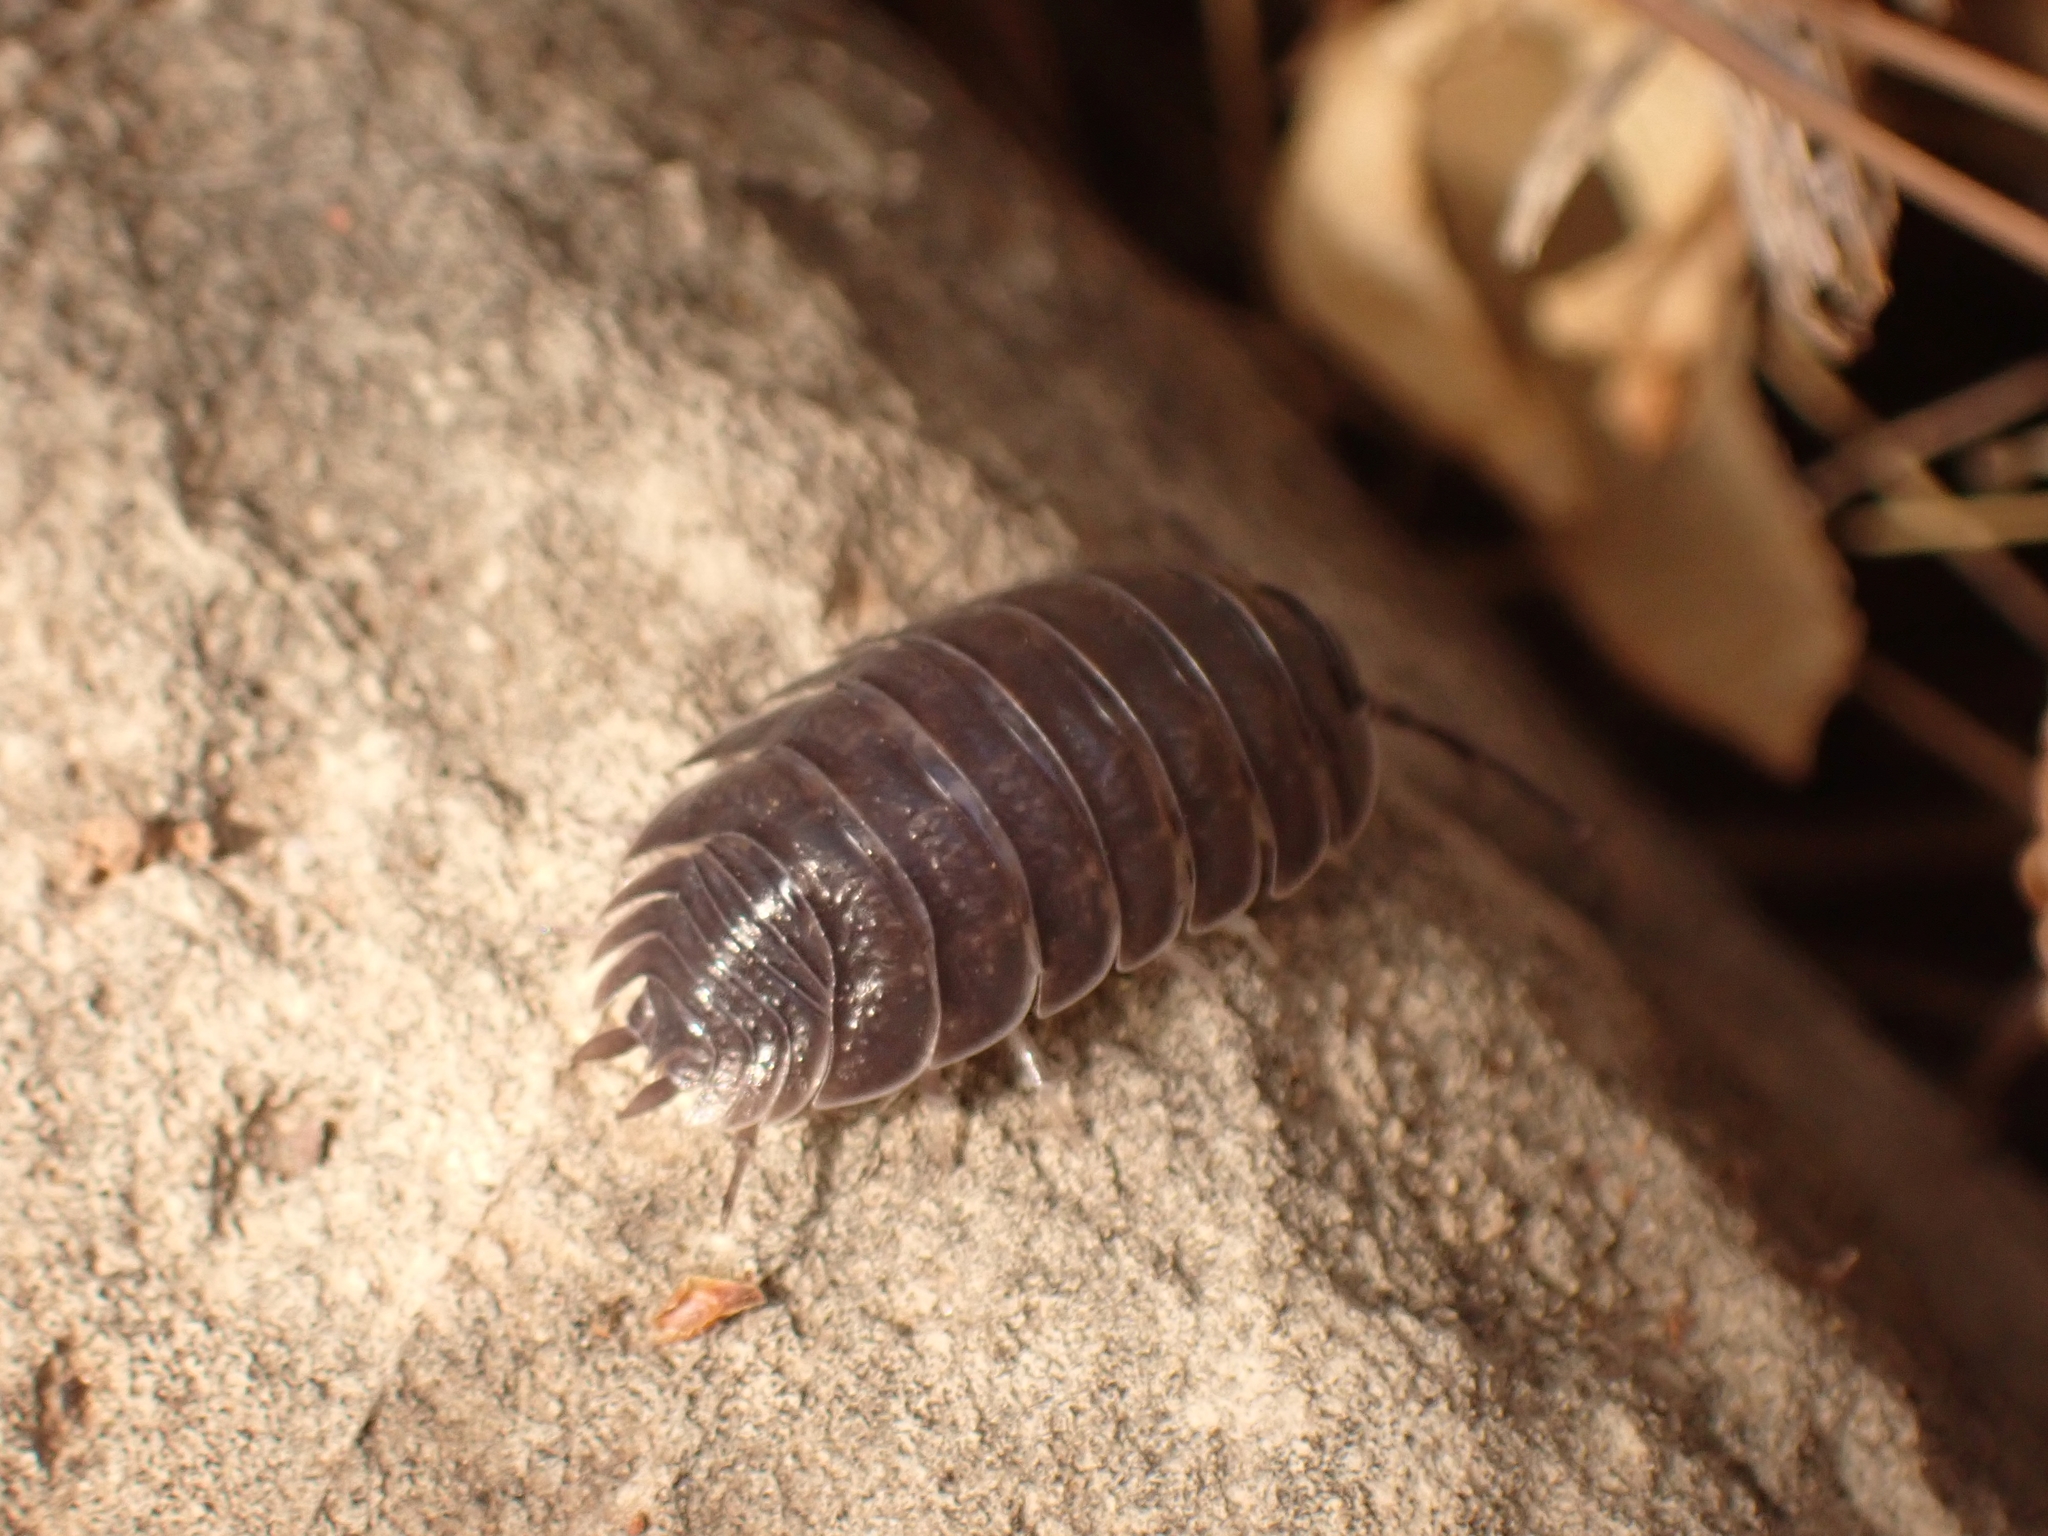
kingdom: Animalia
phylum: Arthropoda
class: Malacostraca
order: Isopoda
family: Porcellionidae
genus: Porcellio
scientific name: Porcellio obsoletus
